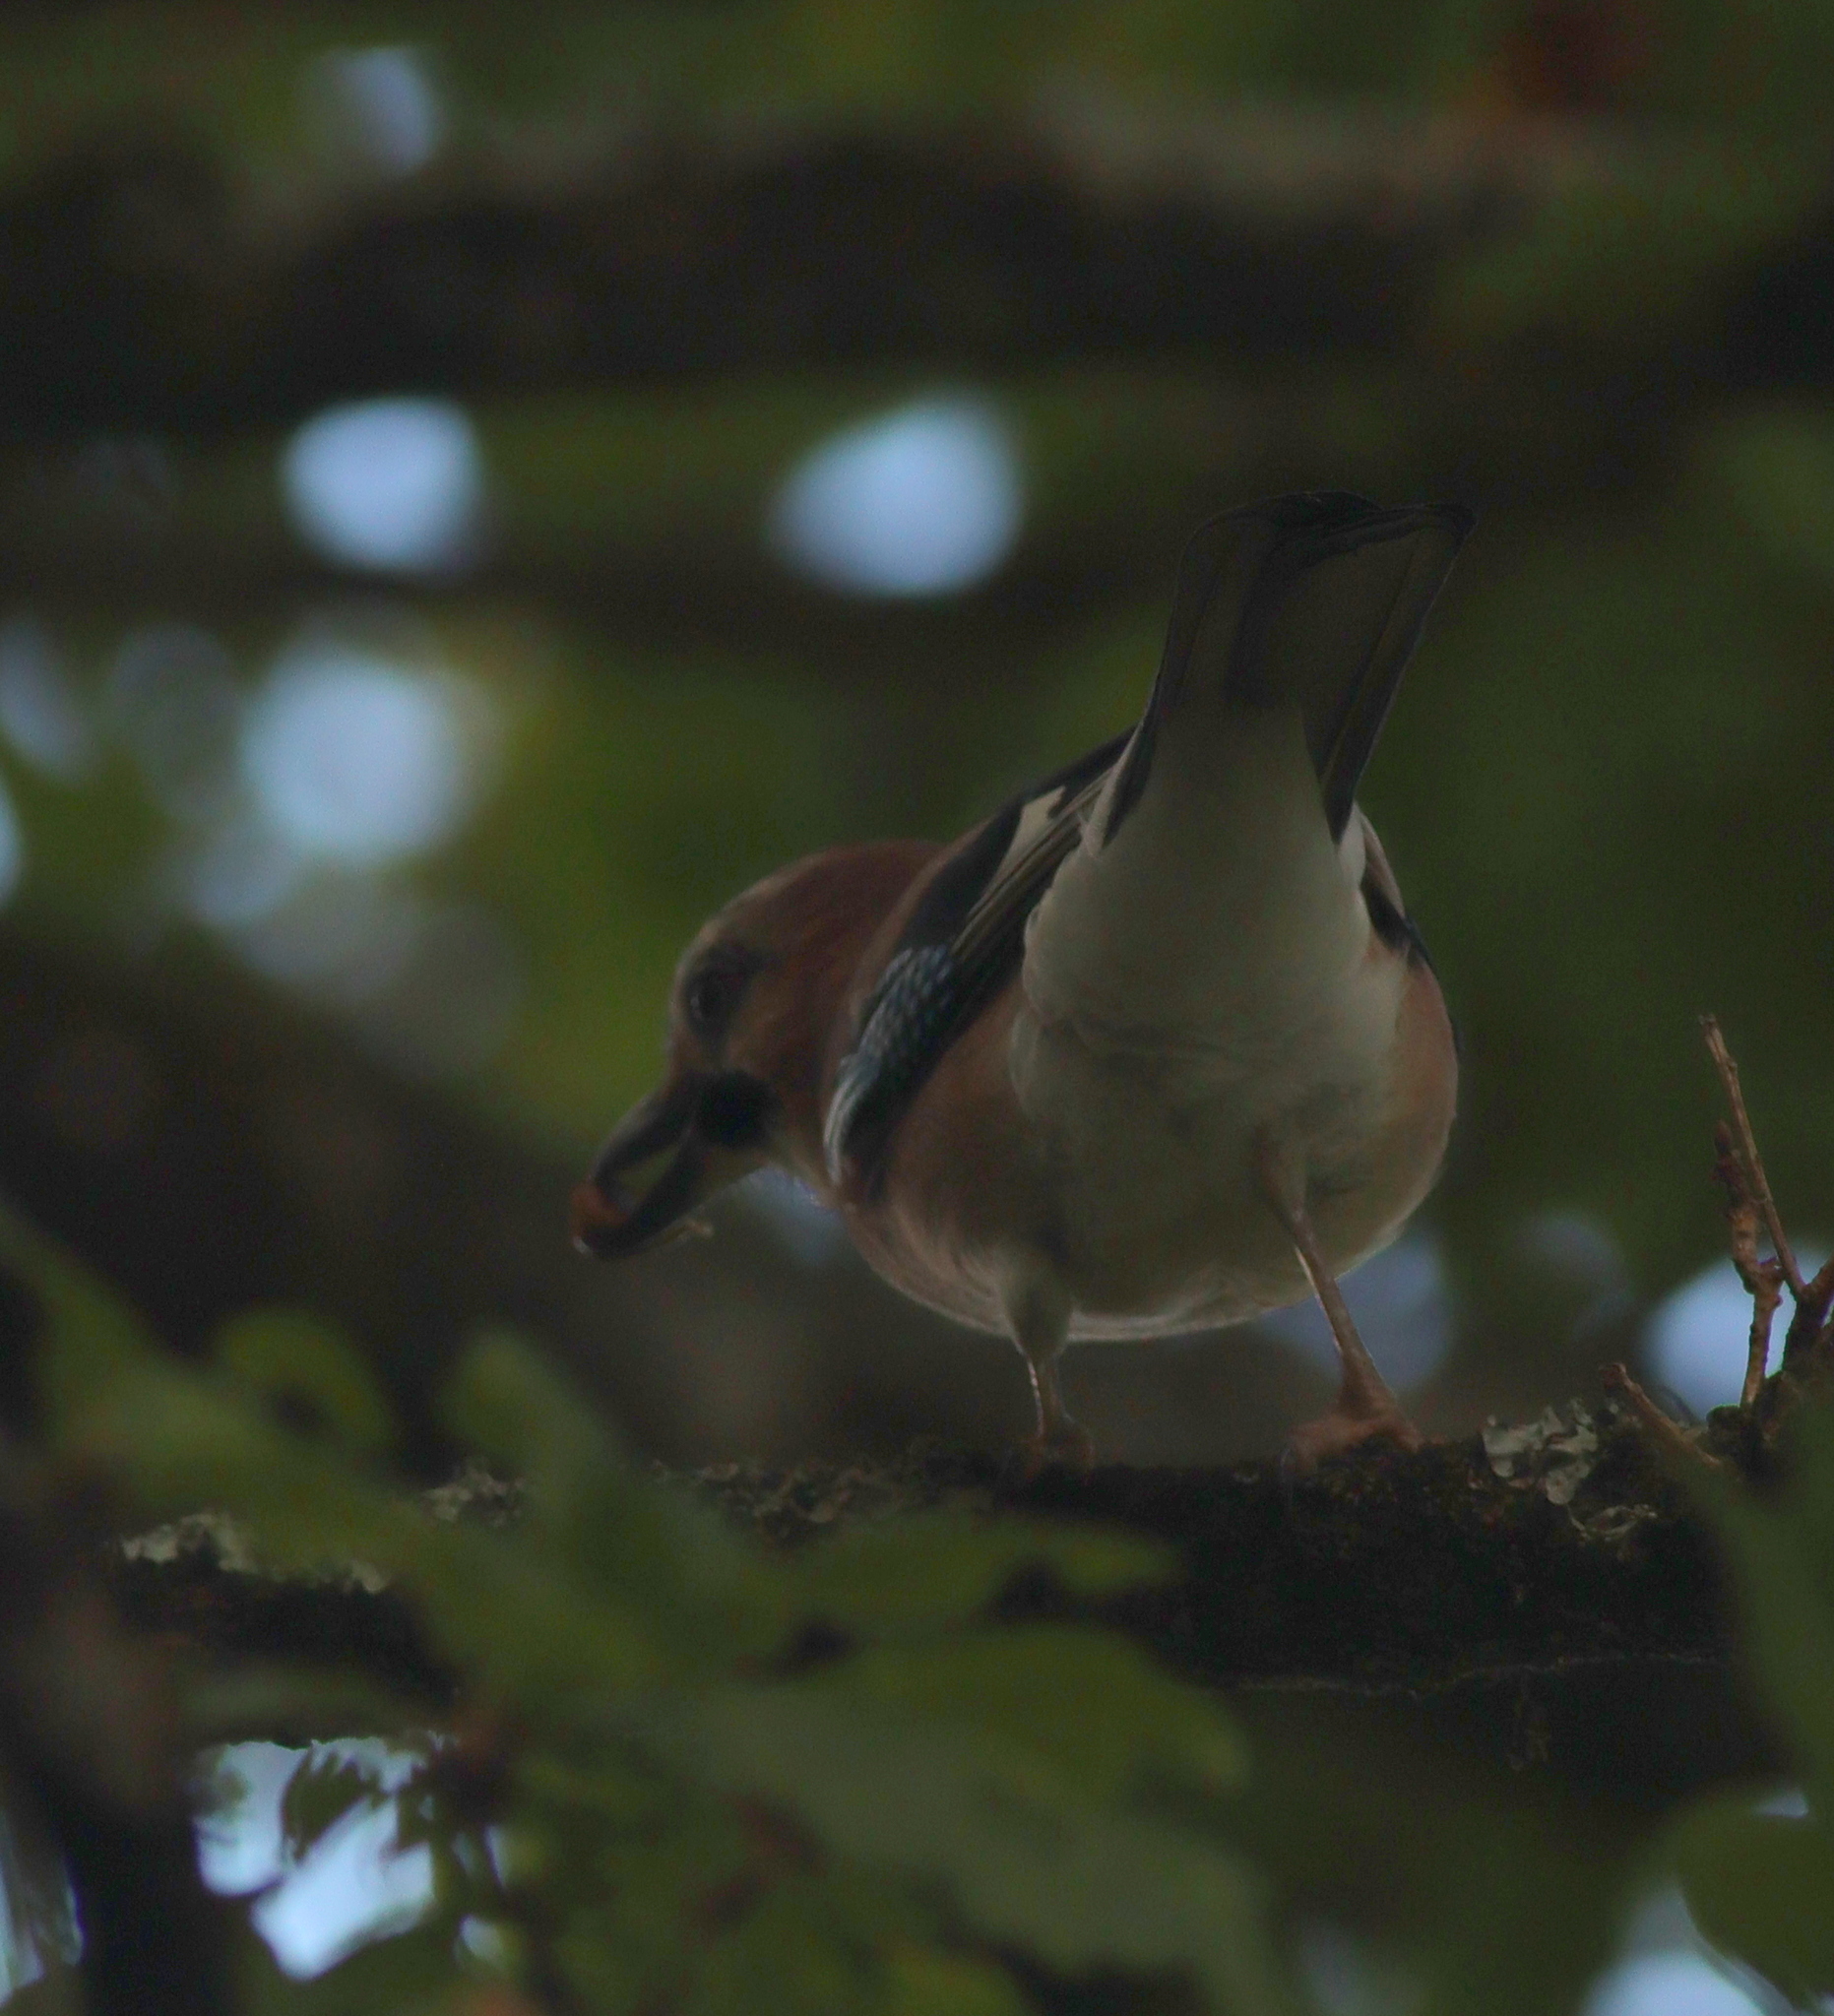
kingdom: Animalia
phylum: Chordata
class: Aves
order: Passeriformes
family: Corvidae
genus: Garrulus
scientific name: Garrulus glandarius
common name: Eurasian jay
